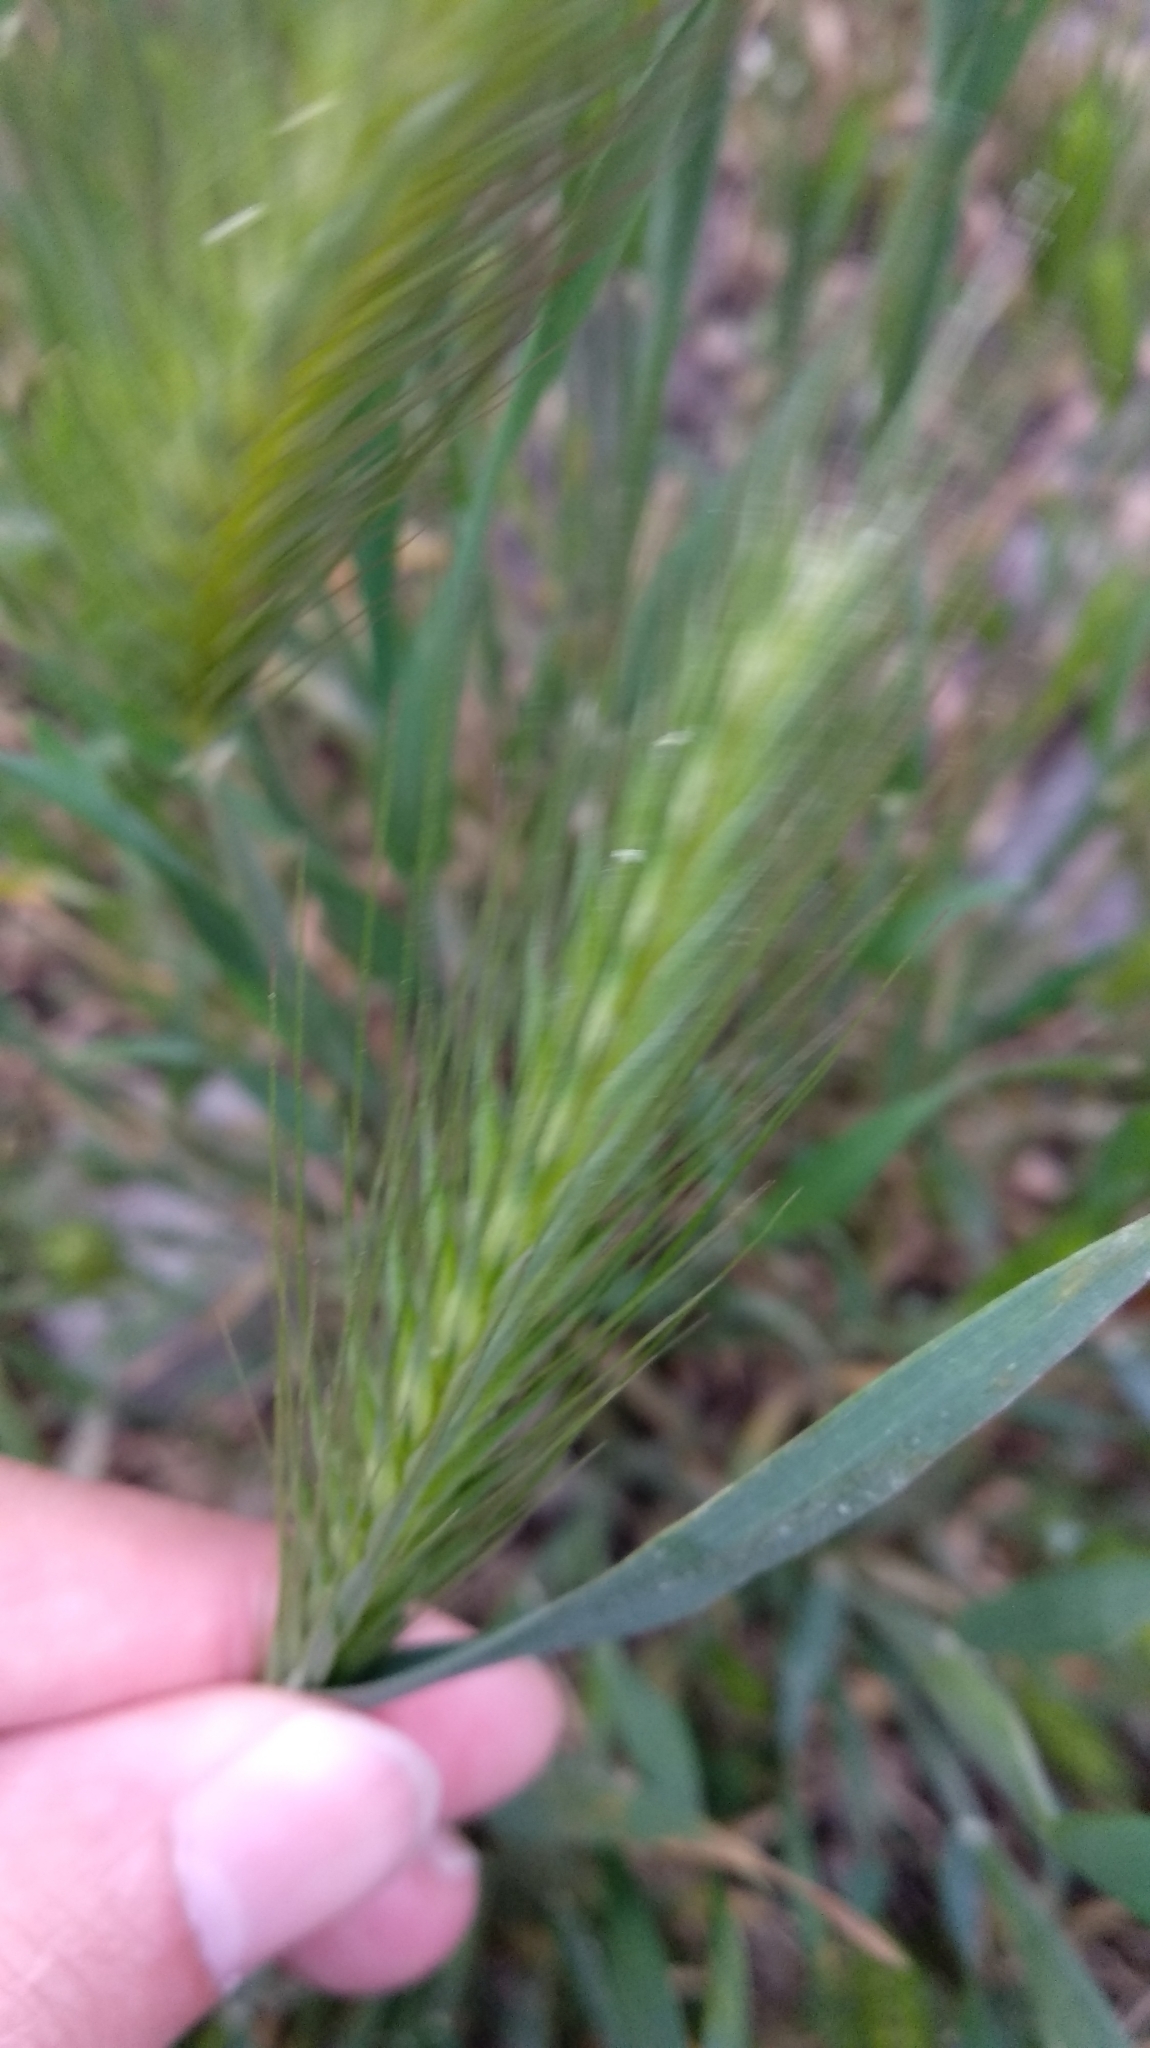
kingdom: Plantae
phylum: Tracheophyta
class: Liliopsida
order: Poales
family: Poaceae
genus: Hordeum
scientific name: Hordeum murinum
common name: Wall barley
